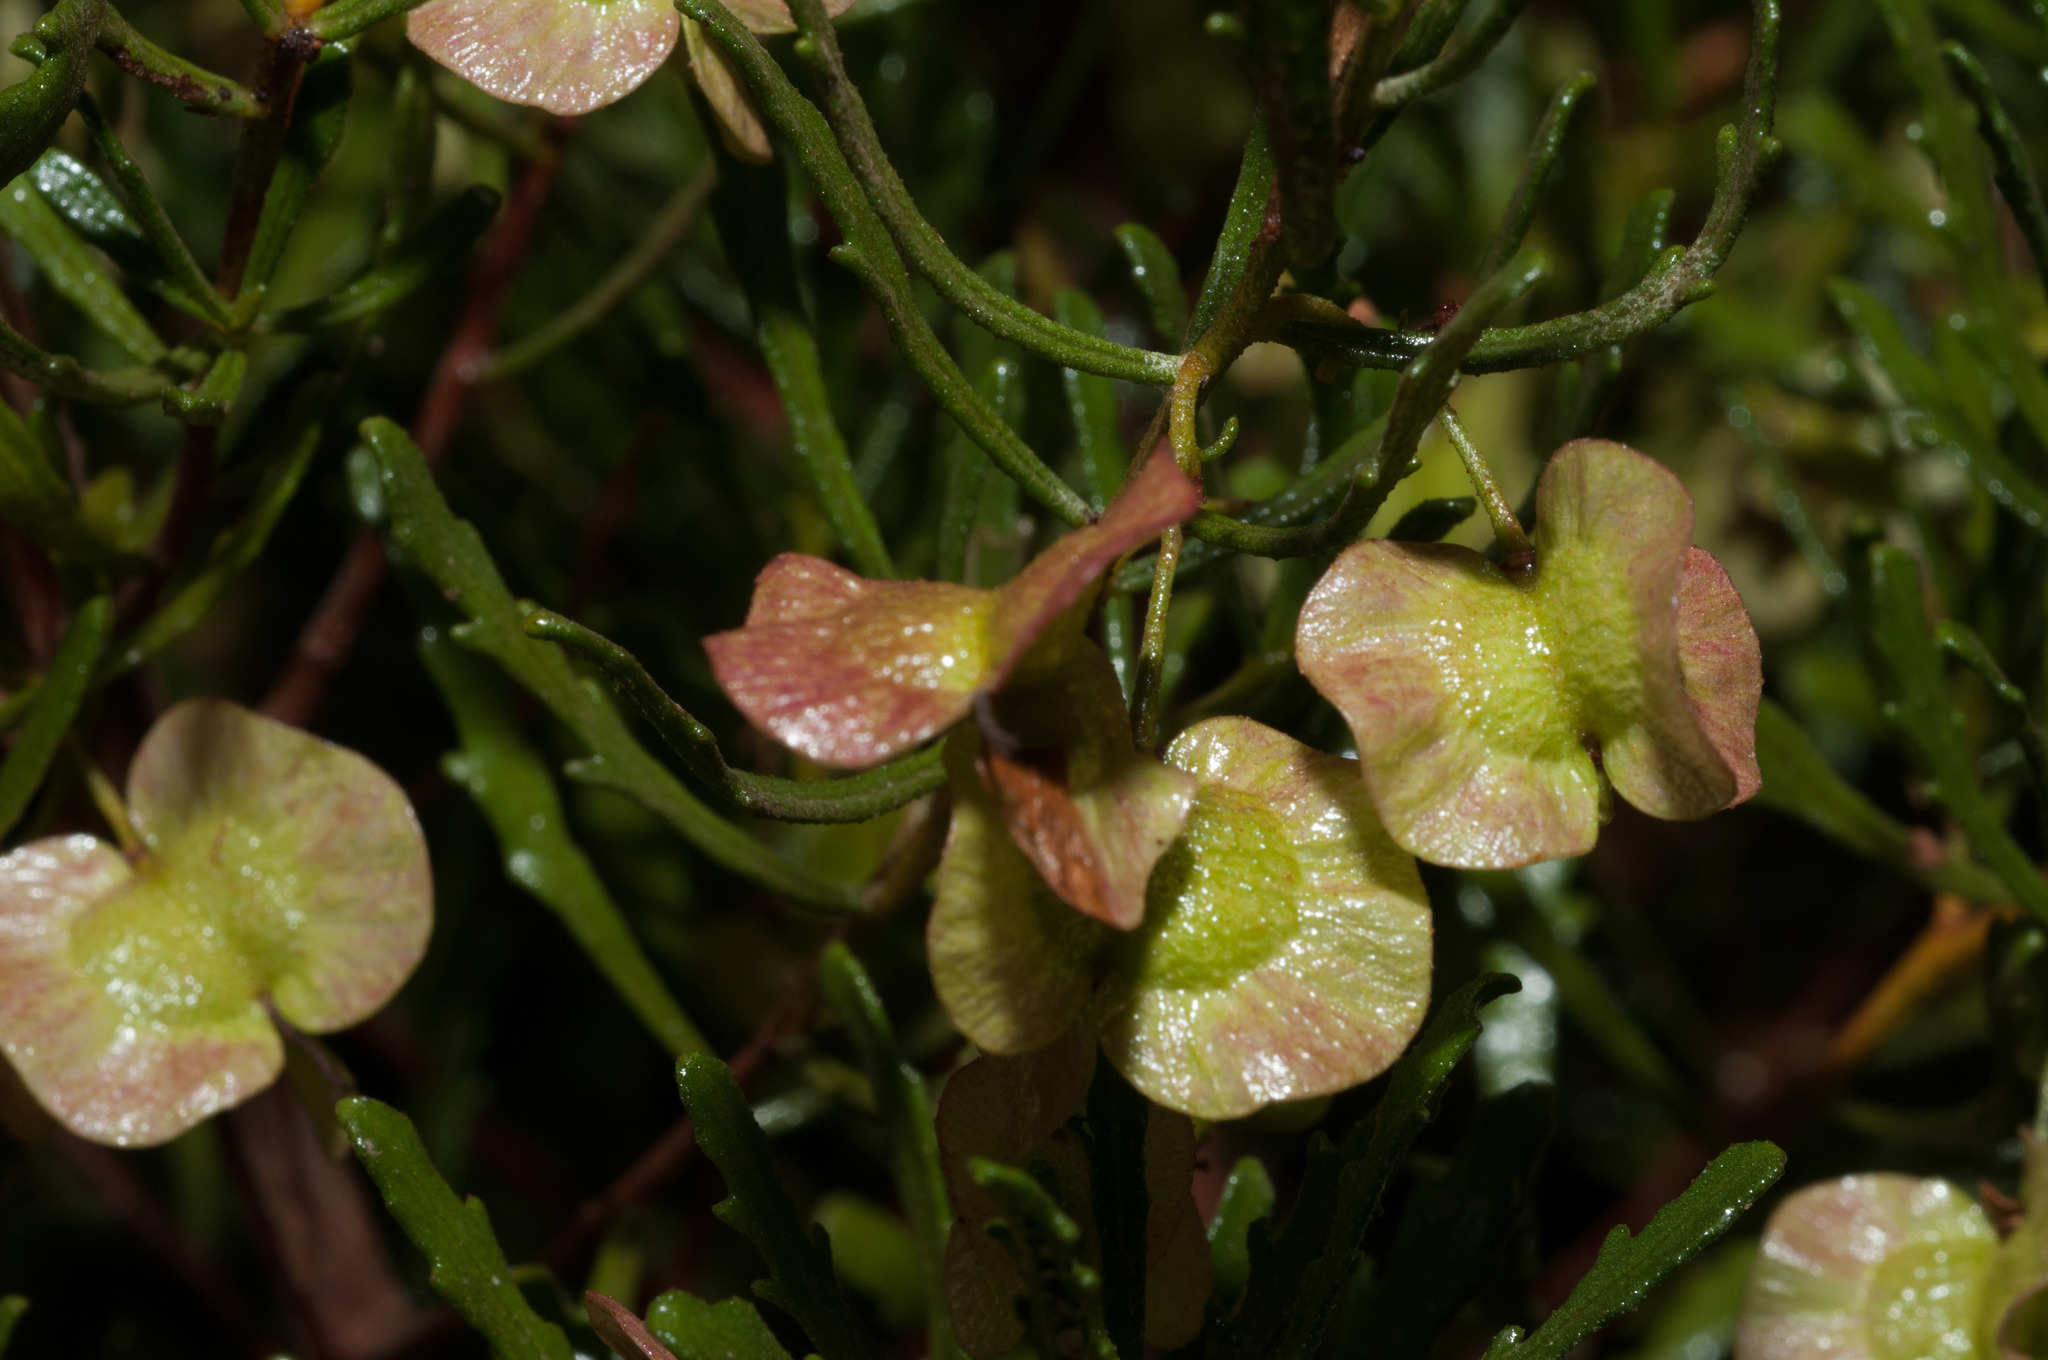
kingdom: Plantae
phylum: Tracheophyta
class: Magnoliopsida
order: Sapindales
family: Sapindaceae
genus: Dodonaea
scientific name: Dodonaea lobulata
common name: Lobe-leaf hopbush
